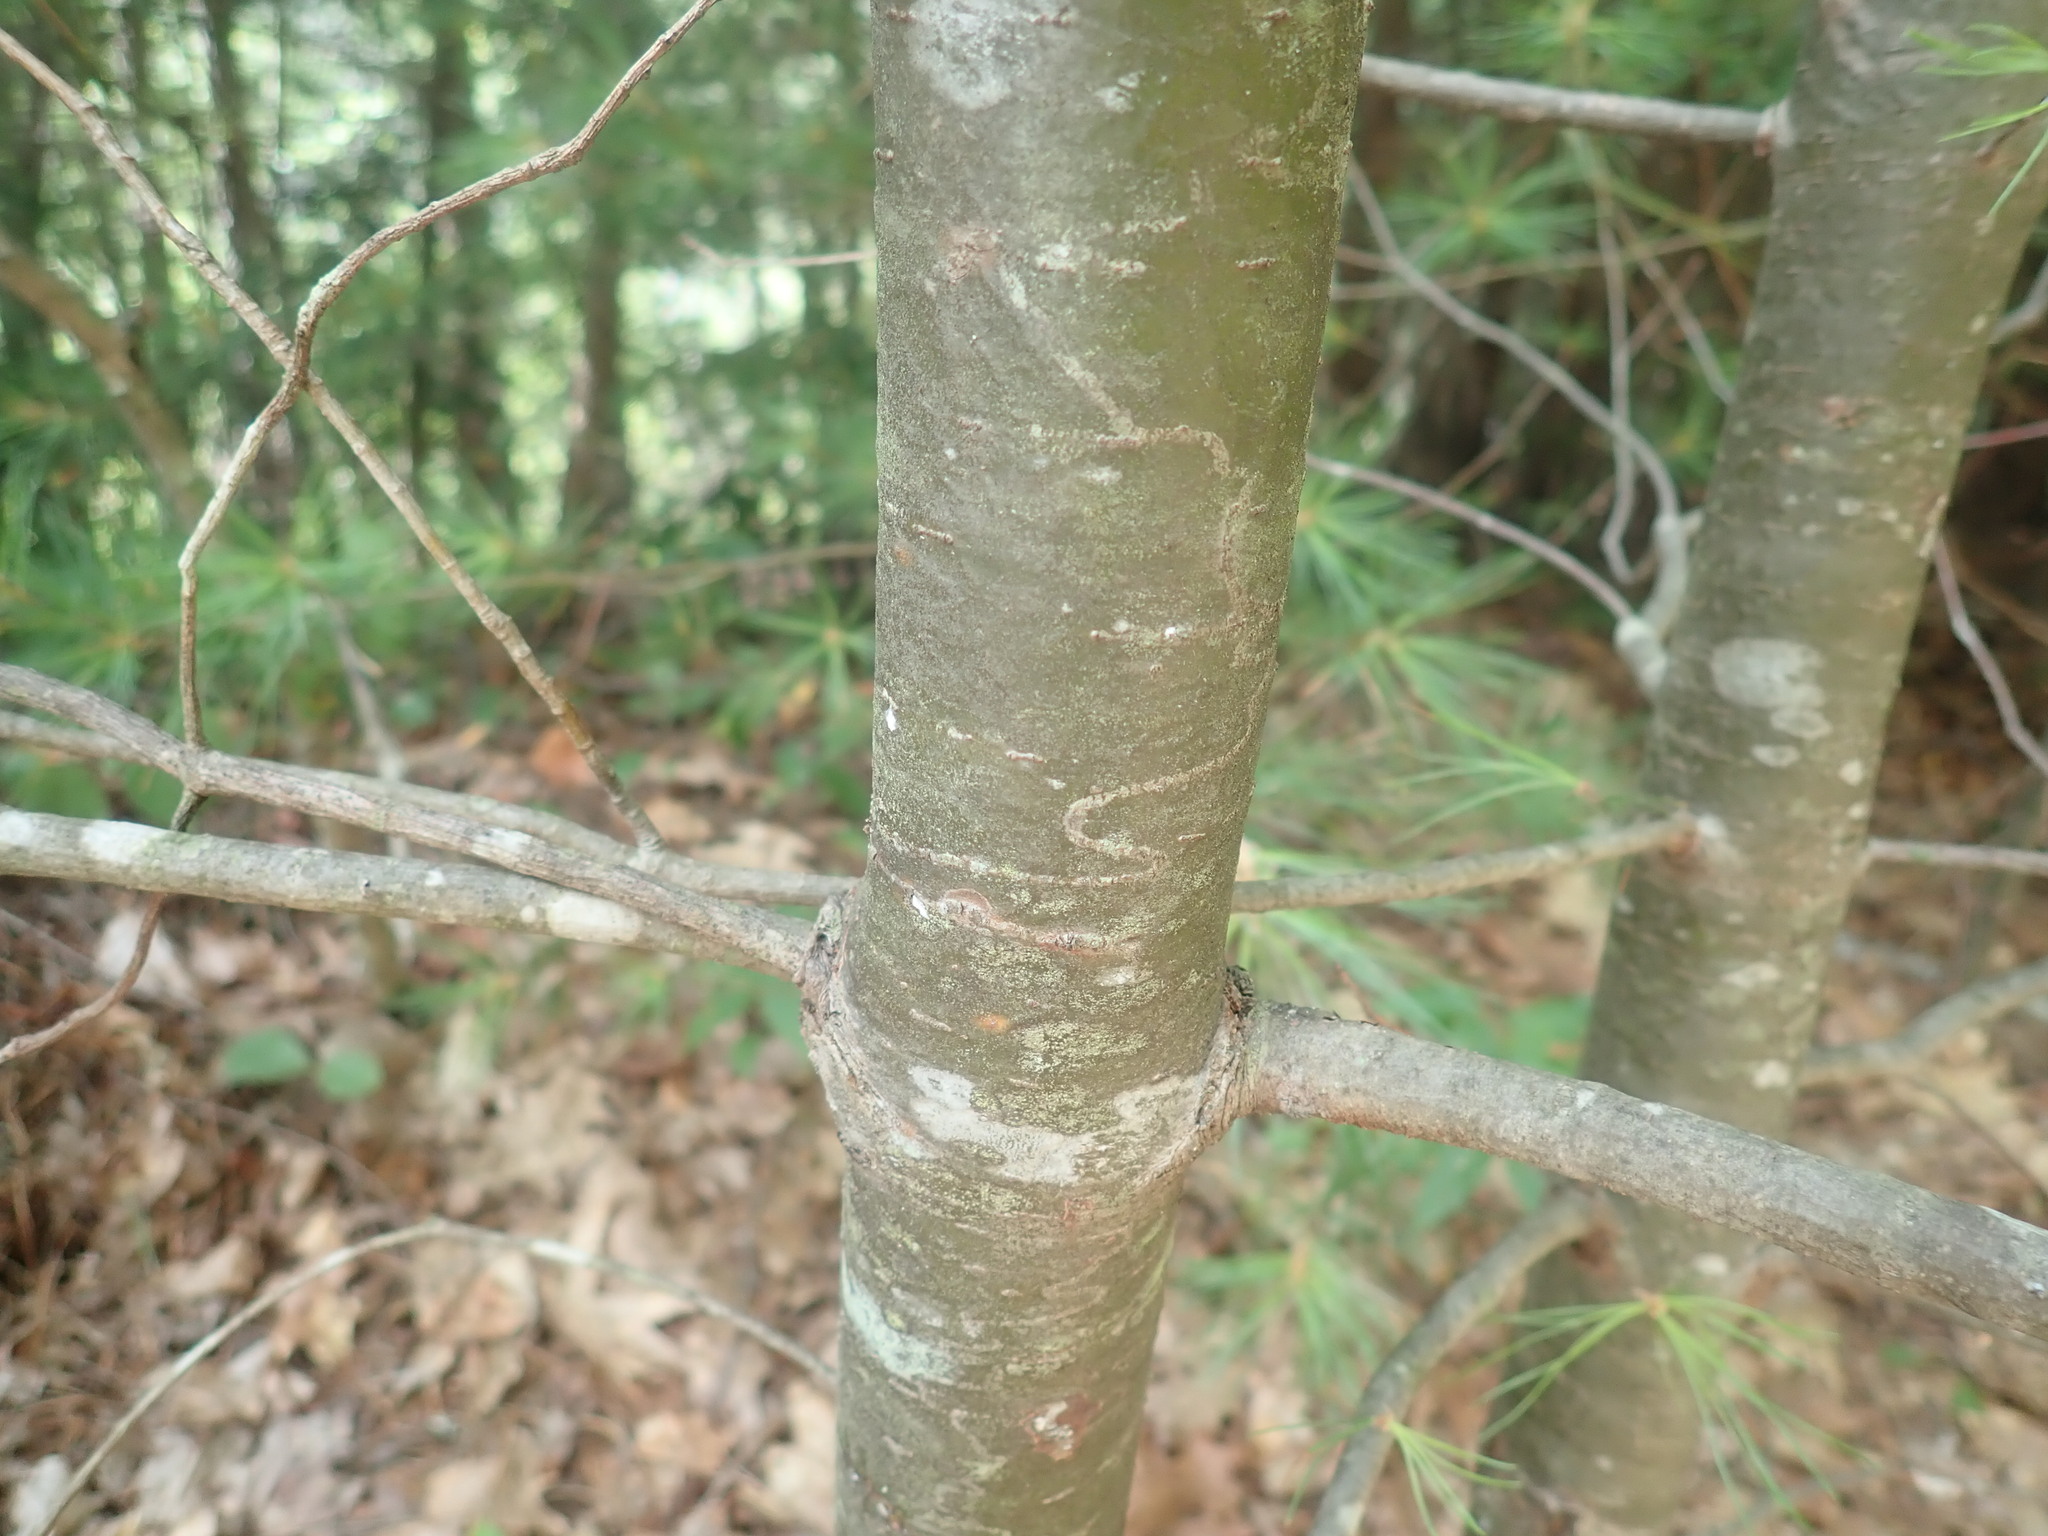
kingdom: Animalia
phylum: Arthropoda
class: Insecta
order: Lepidoptera
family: Gracillariidae
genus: Marmara
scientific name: Marmara fasciella
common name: White pine barkminer moth
